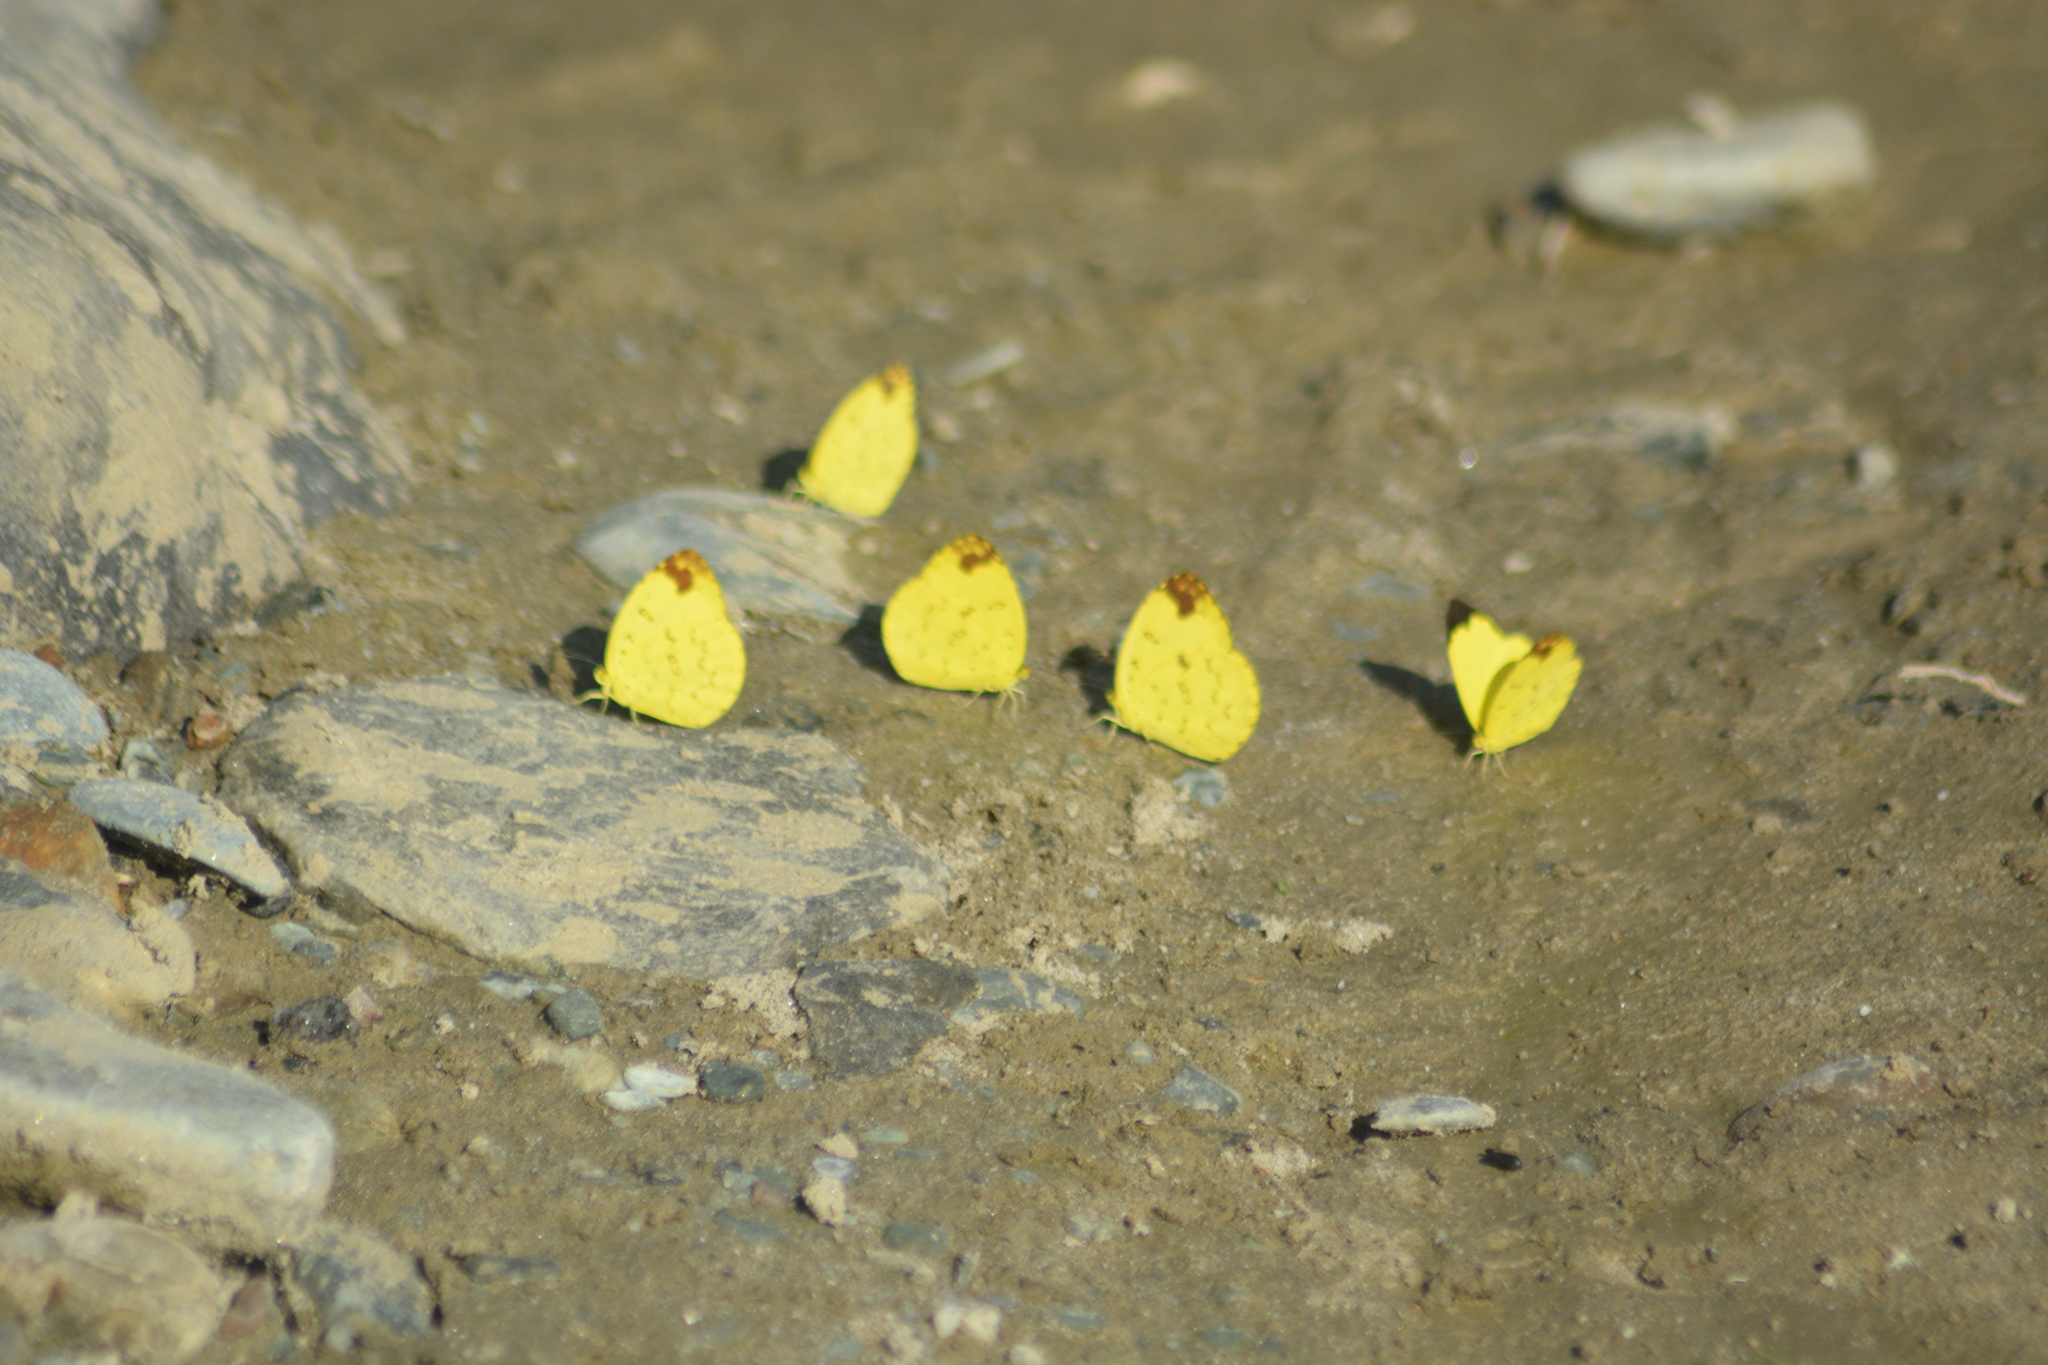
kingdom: Animalia
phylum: Arthropoda
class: Insecta
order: Lepidoptera
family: Pieridae
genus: Eurema
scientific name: Eurema blanda
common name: Three-spot grass yellow
